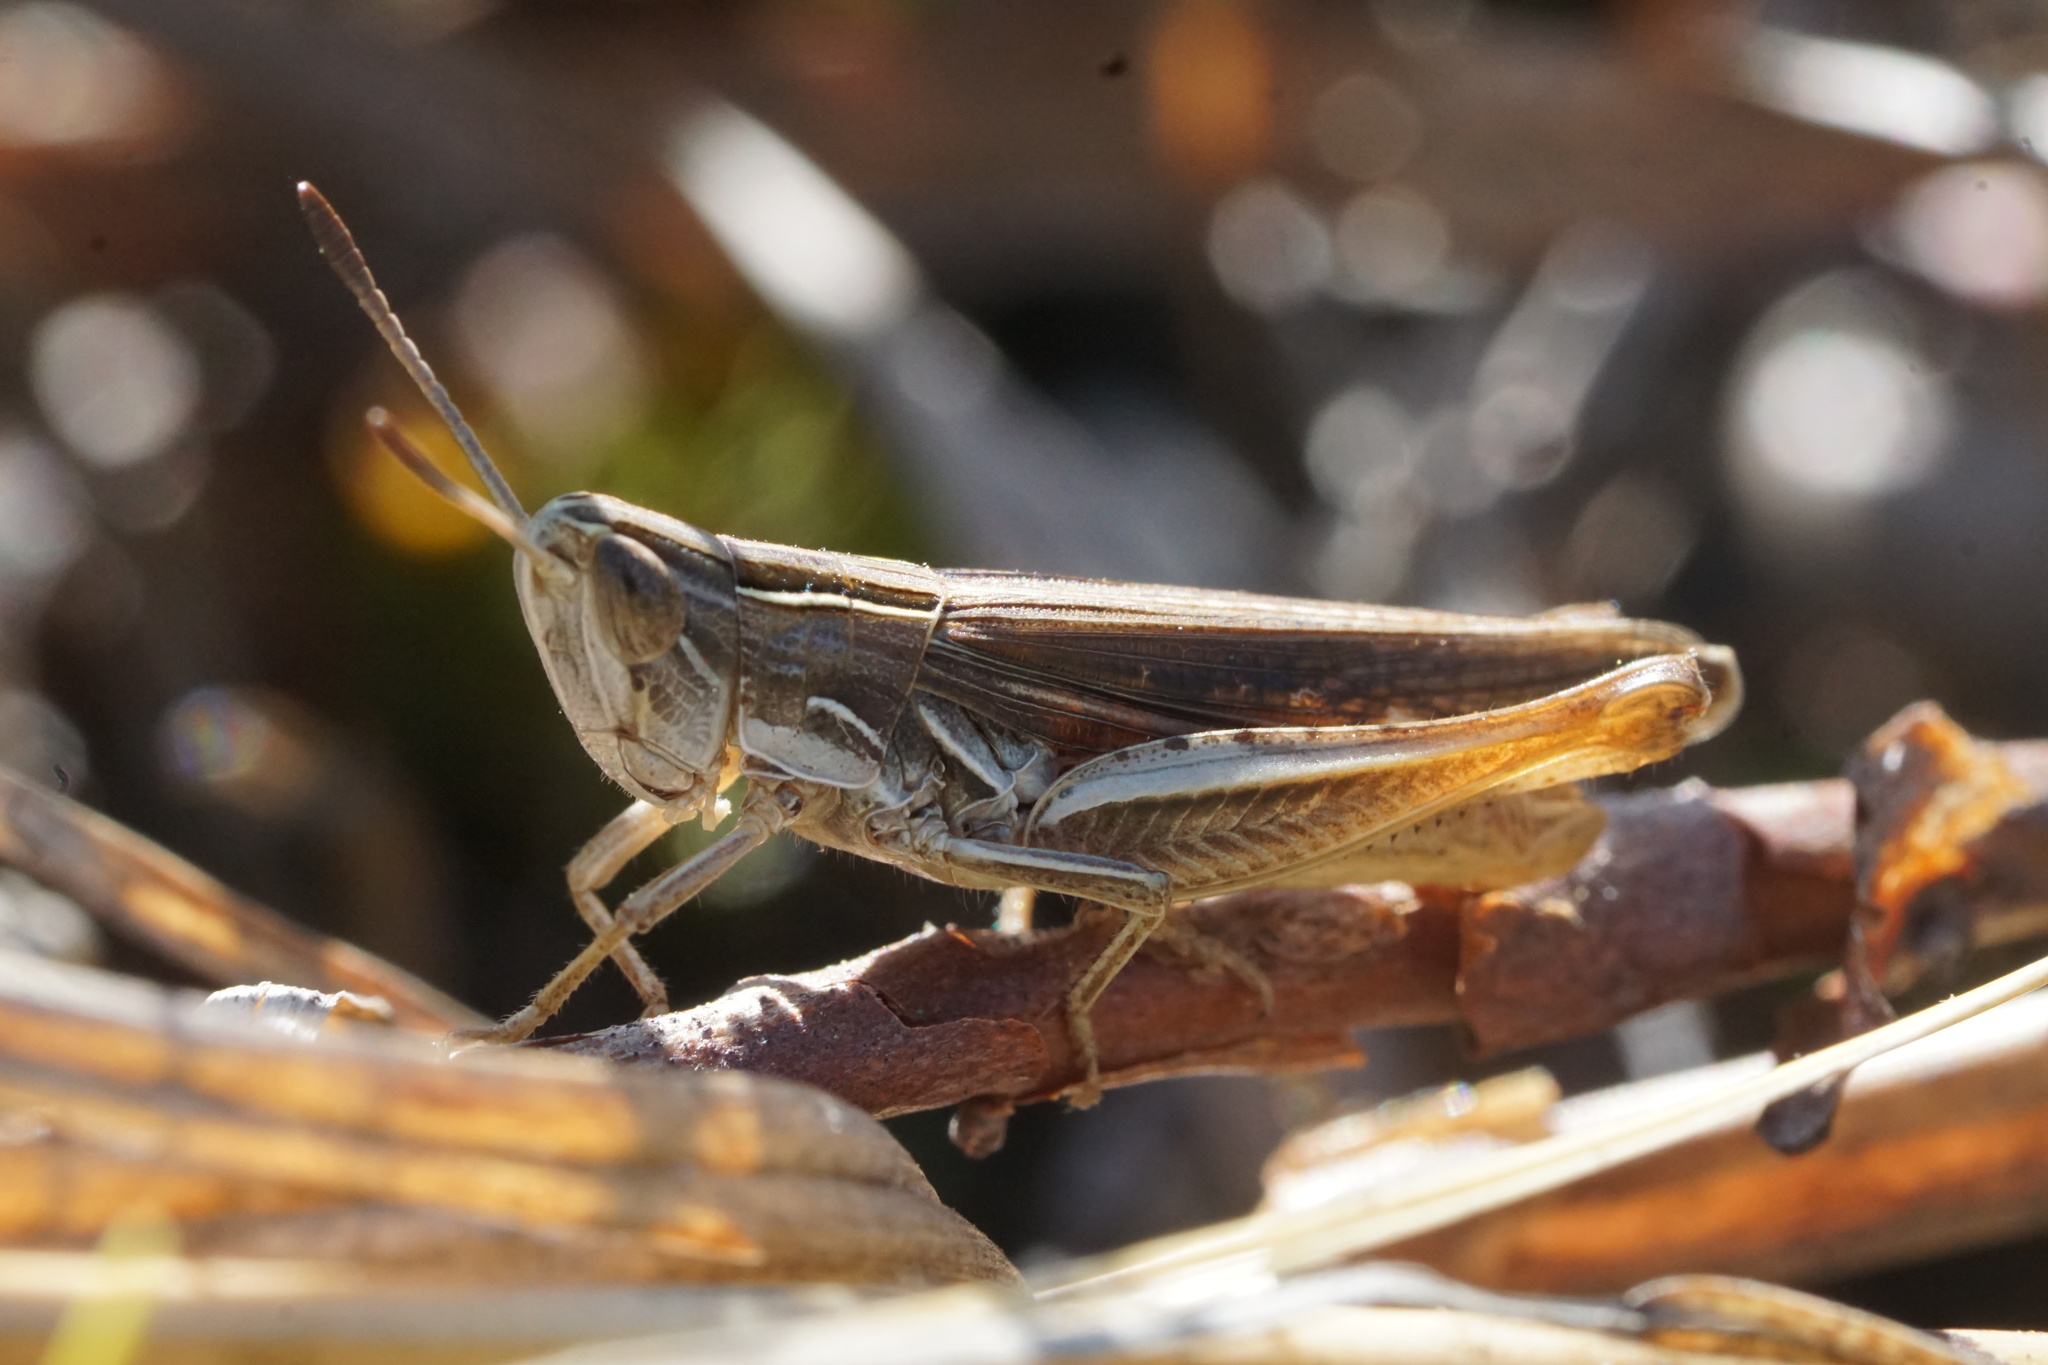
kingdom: Animalia
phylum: Arthropoda
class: Insecta
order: Orthoptera
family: Acrididae
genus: Eritettix
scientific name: Eritettix simplex
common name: Velvet-striped grasshopper
